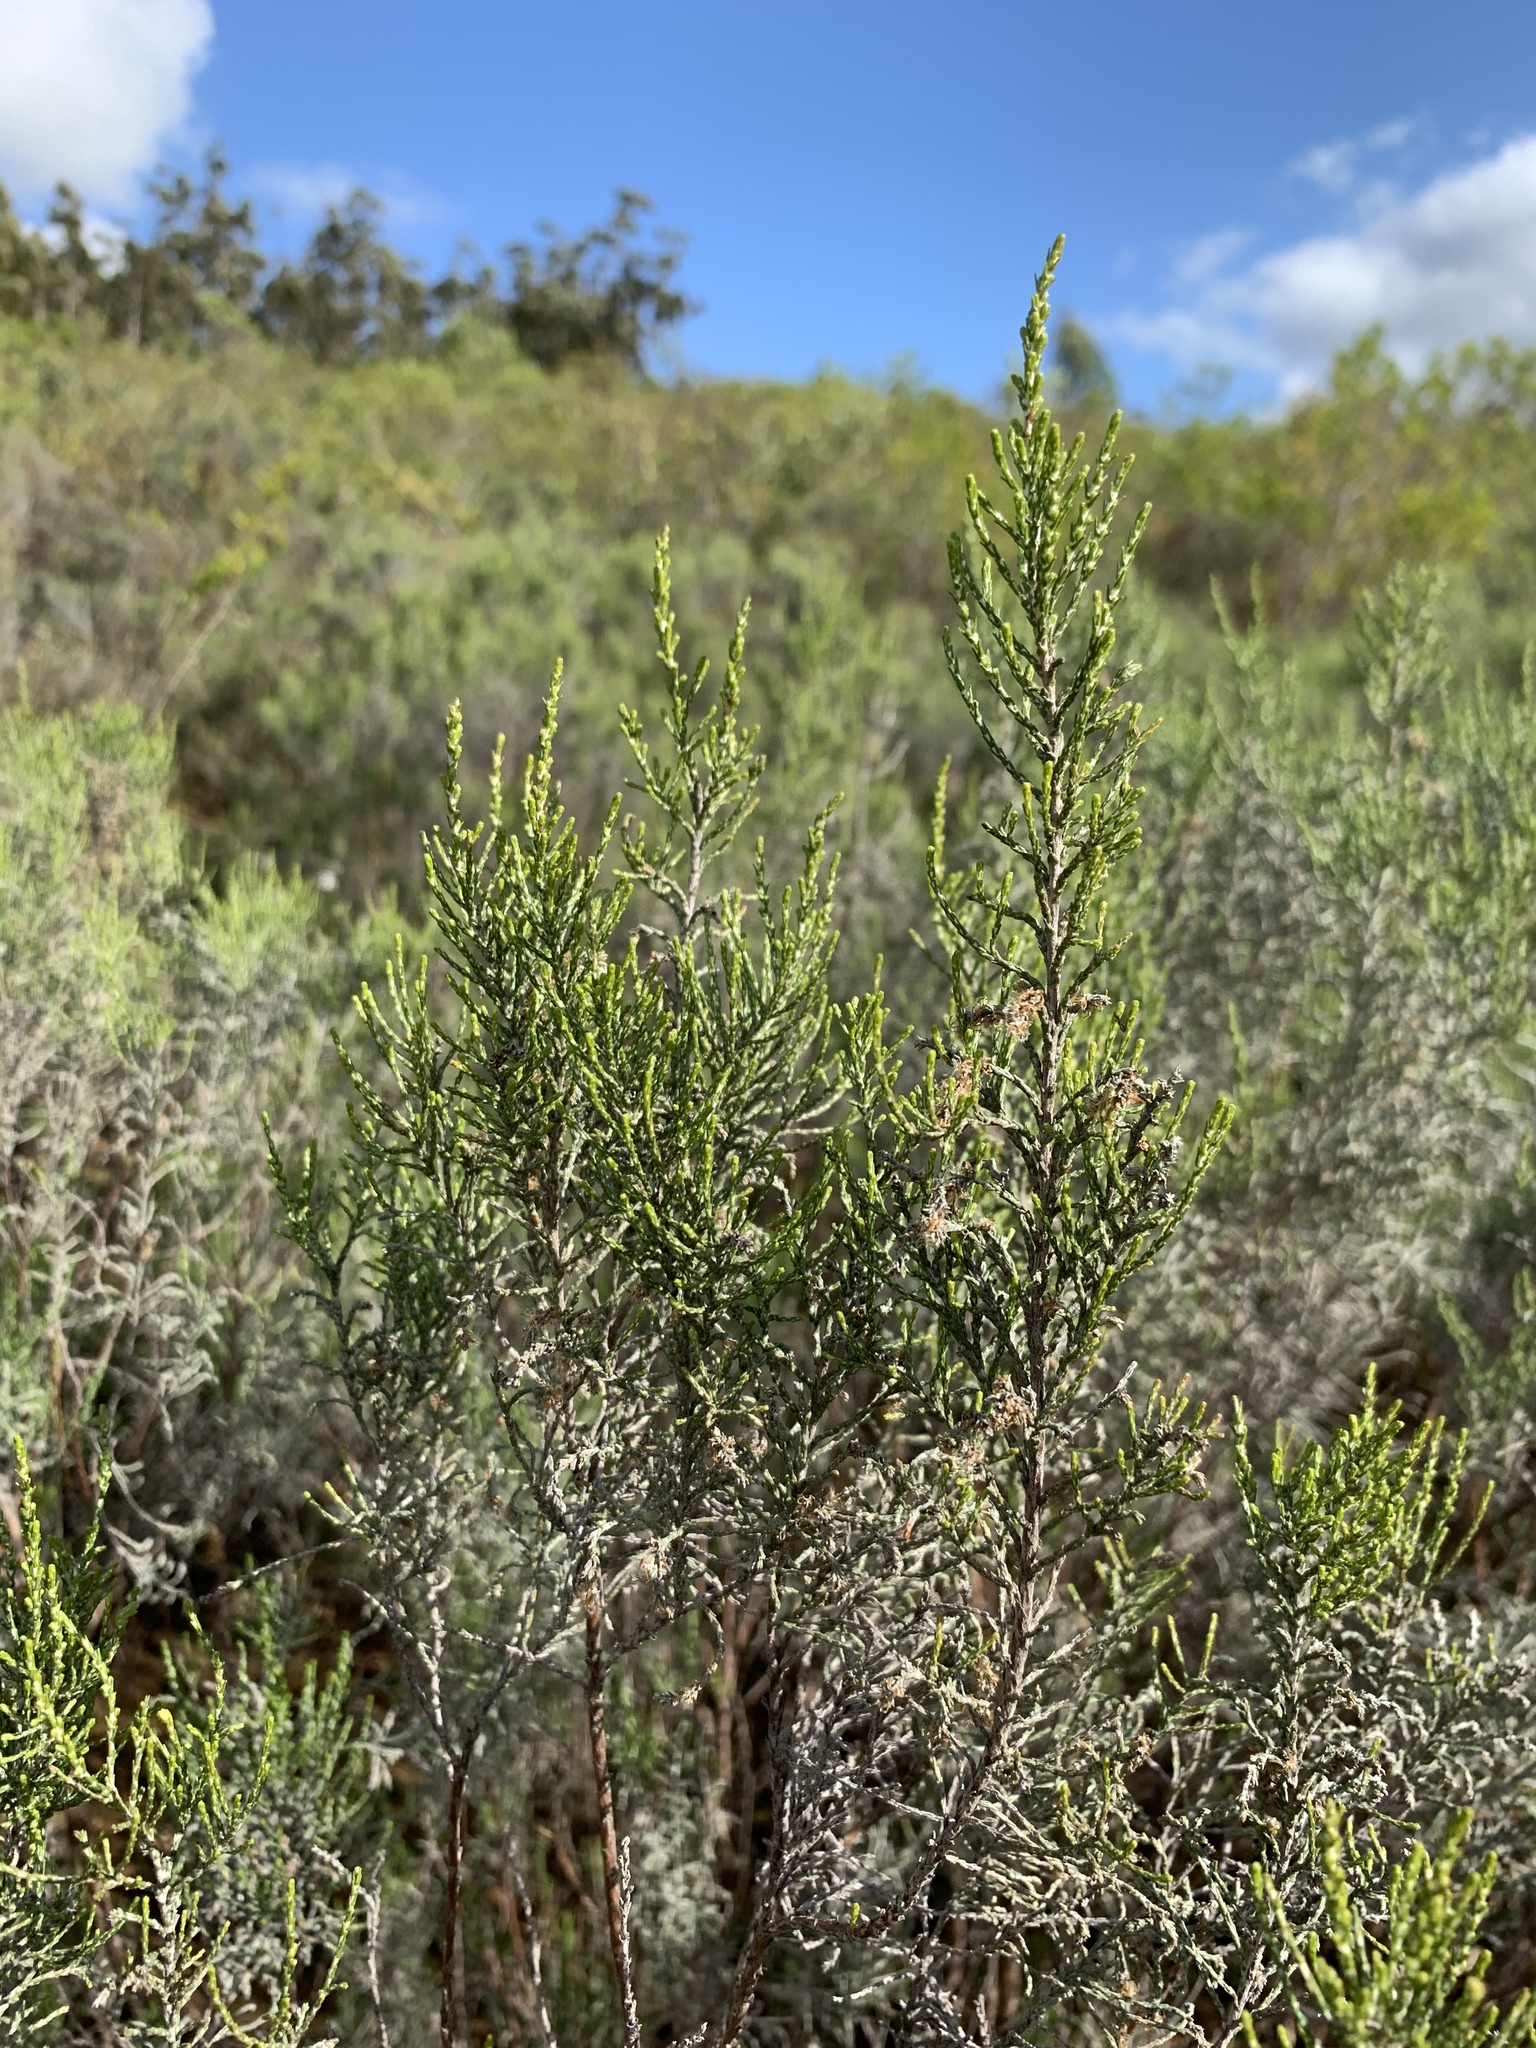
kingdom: Plantae
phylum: Tracheophyta
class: Magnoliopsida
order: Asterales
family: Asteraceae
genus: Dicerothamnus
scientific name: Dicerothamnus rhinocerotis
